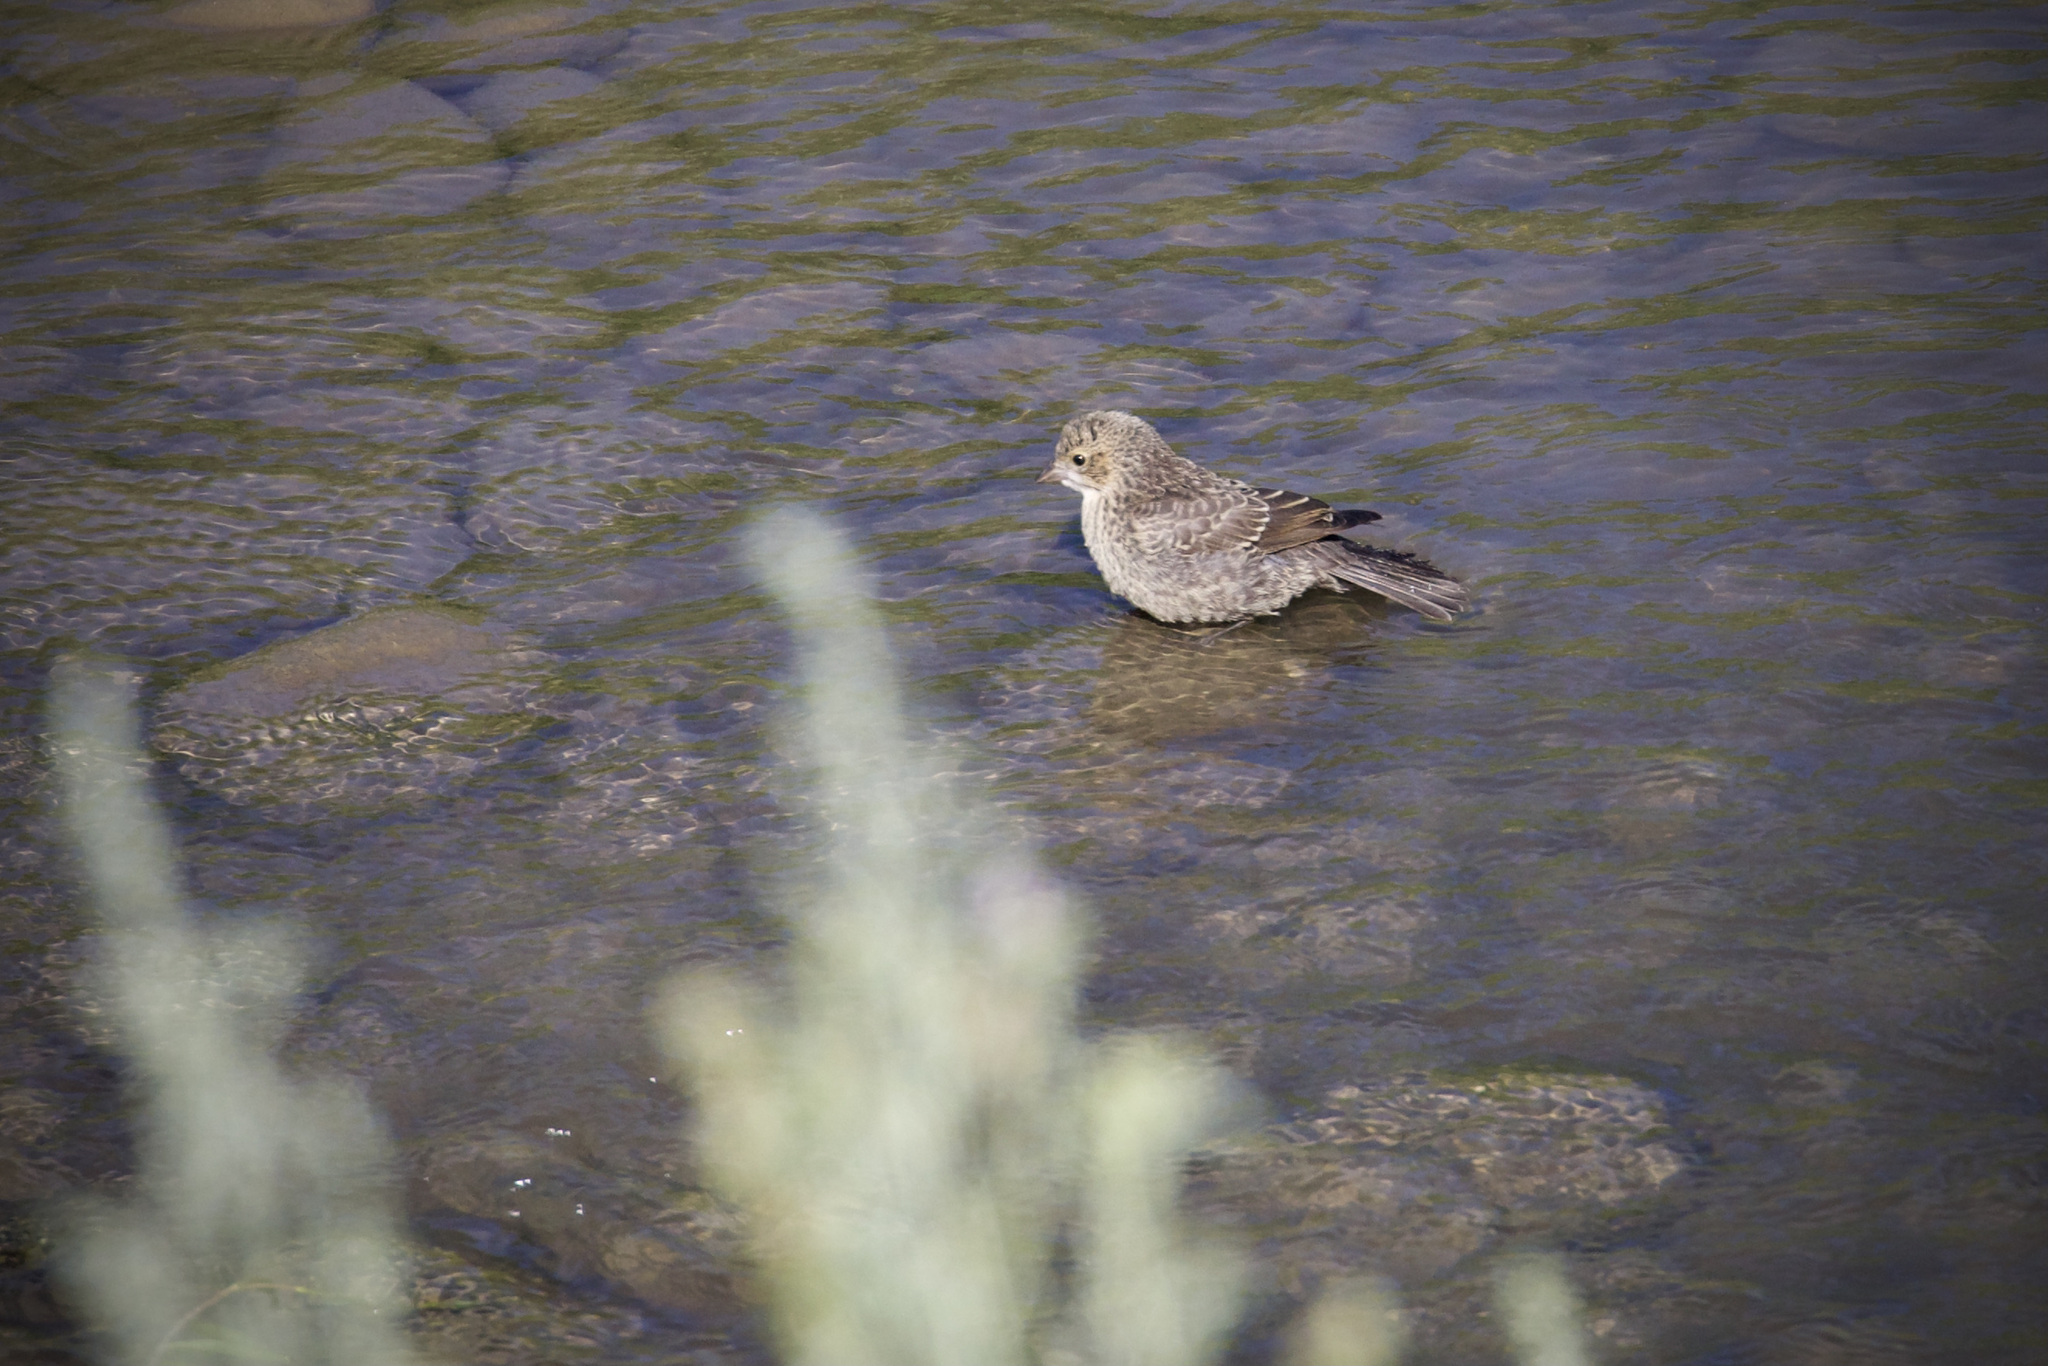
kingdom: Animalia
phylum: Chordata
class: Aves
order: Passeriformes
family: Icteridae
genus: Molothrus
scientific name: Molothrus ater
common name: Brown-headed cowbird
